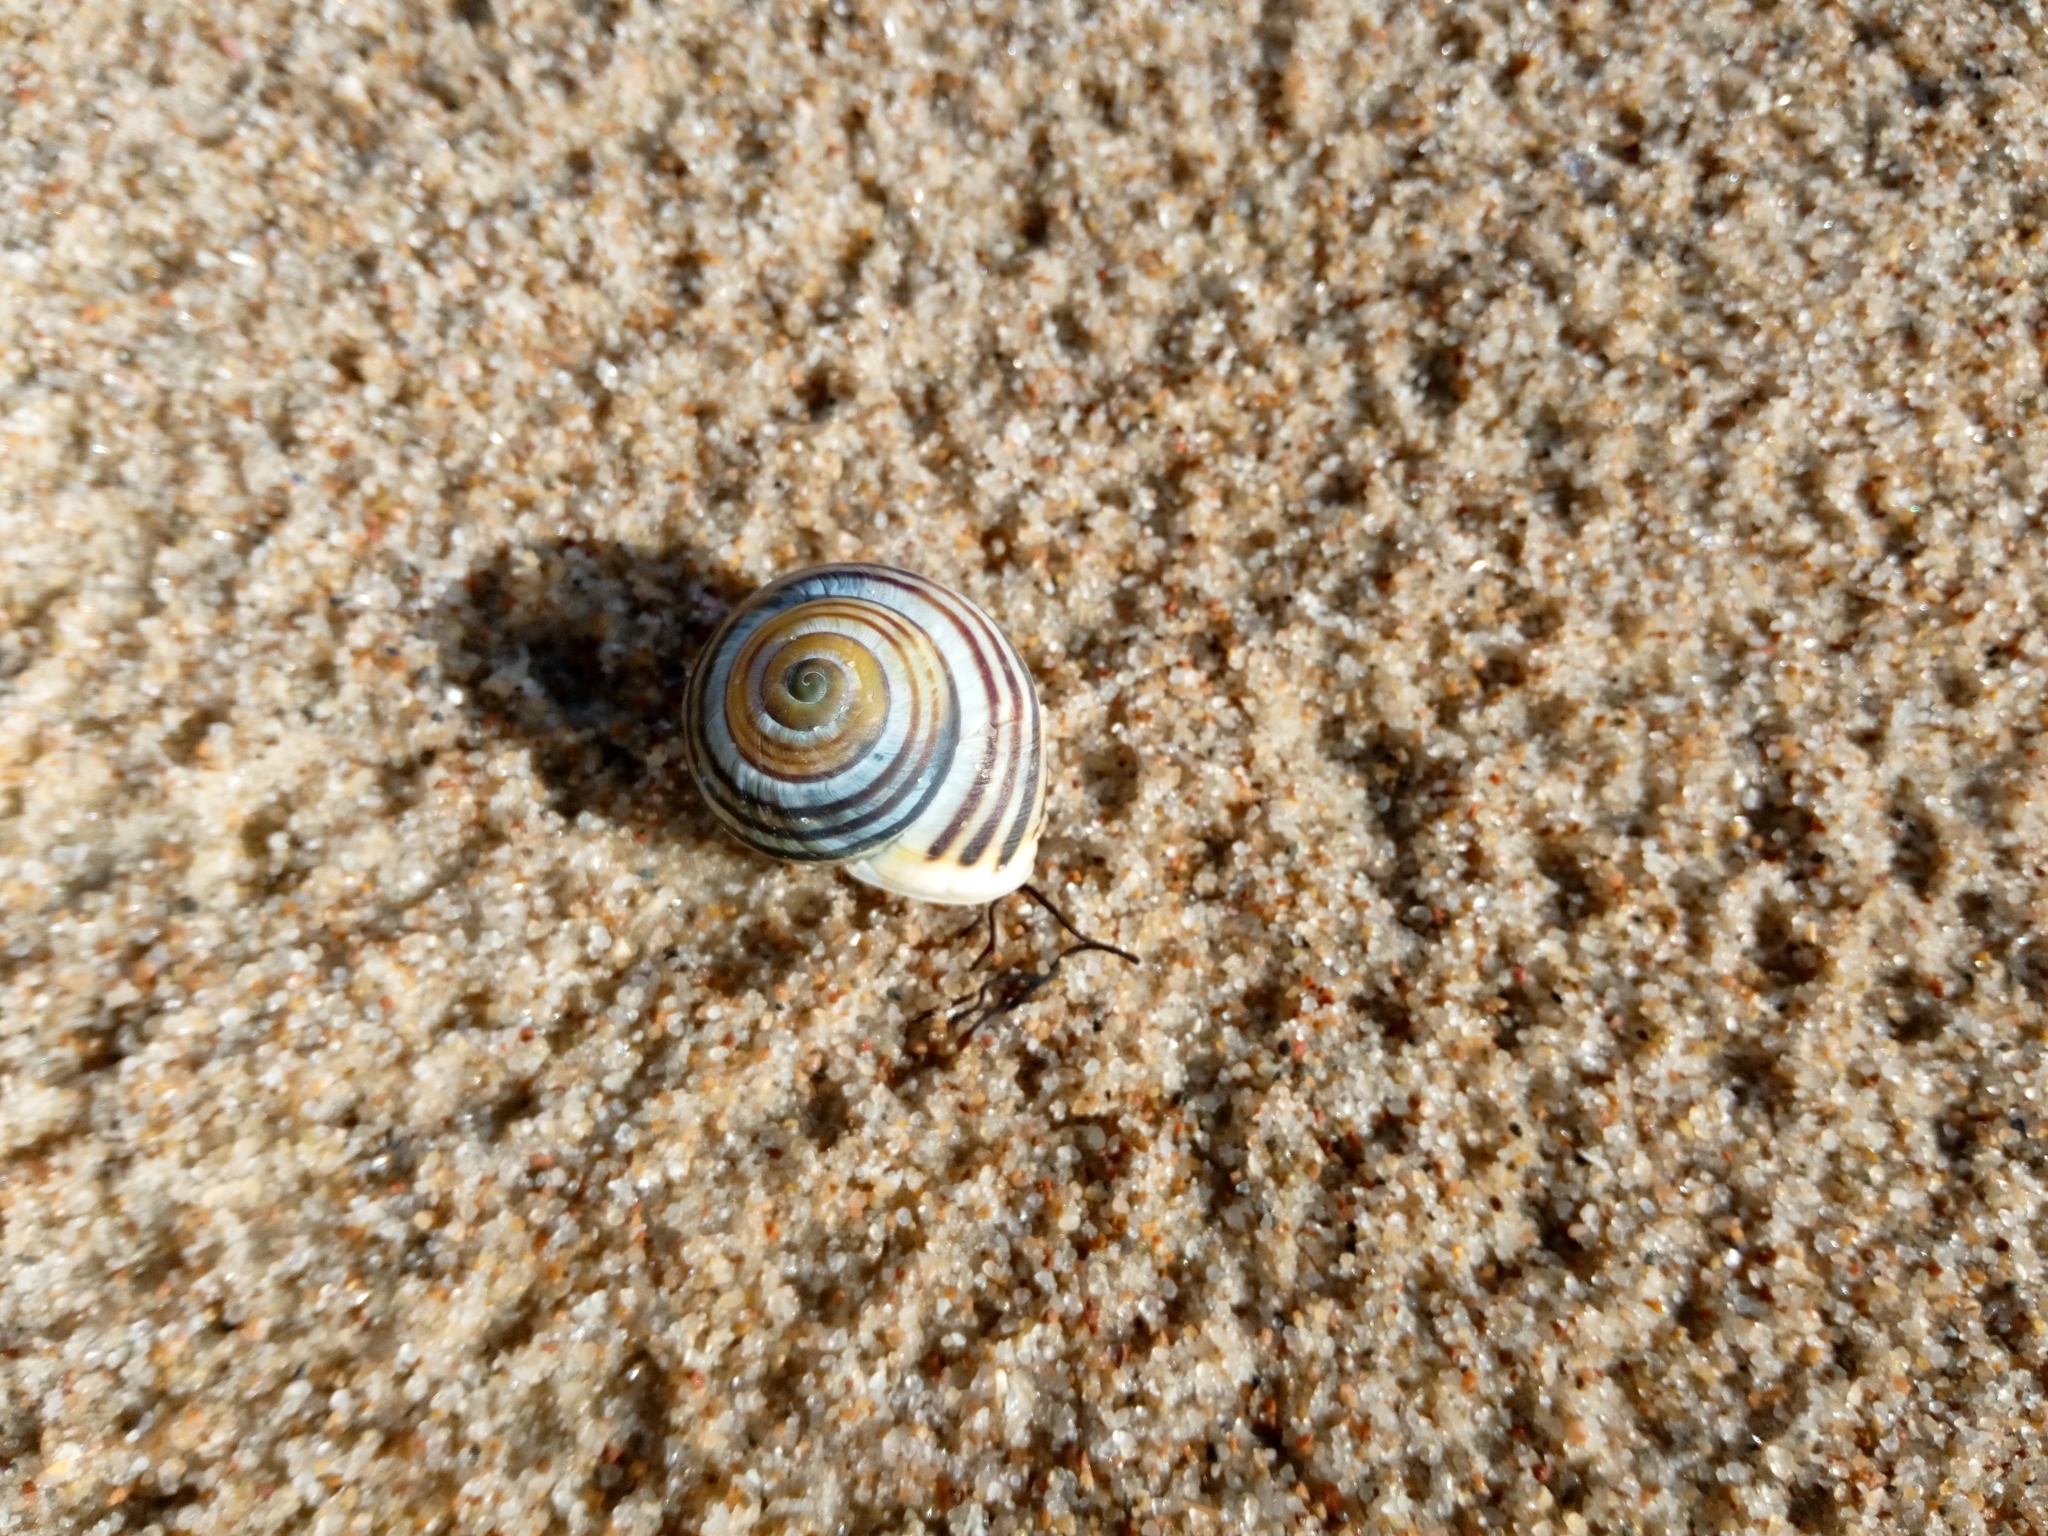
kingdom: Animalia
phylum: Mollusca
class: Gastropoda
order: Stylommatophora
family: Helicidae
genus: Cepaea
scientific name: Cepaea hortensis
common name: White-lip gardensnail
